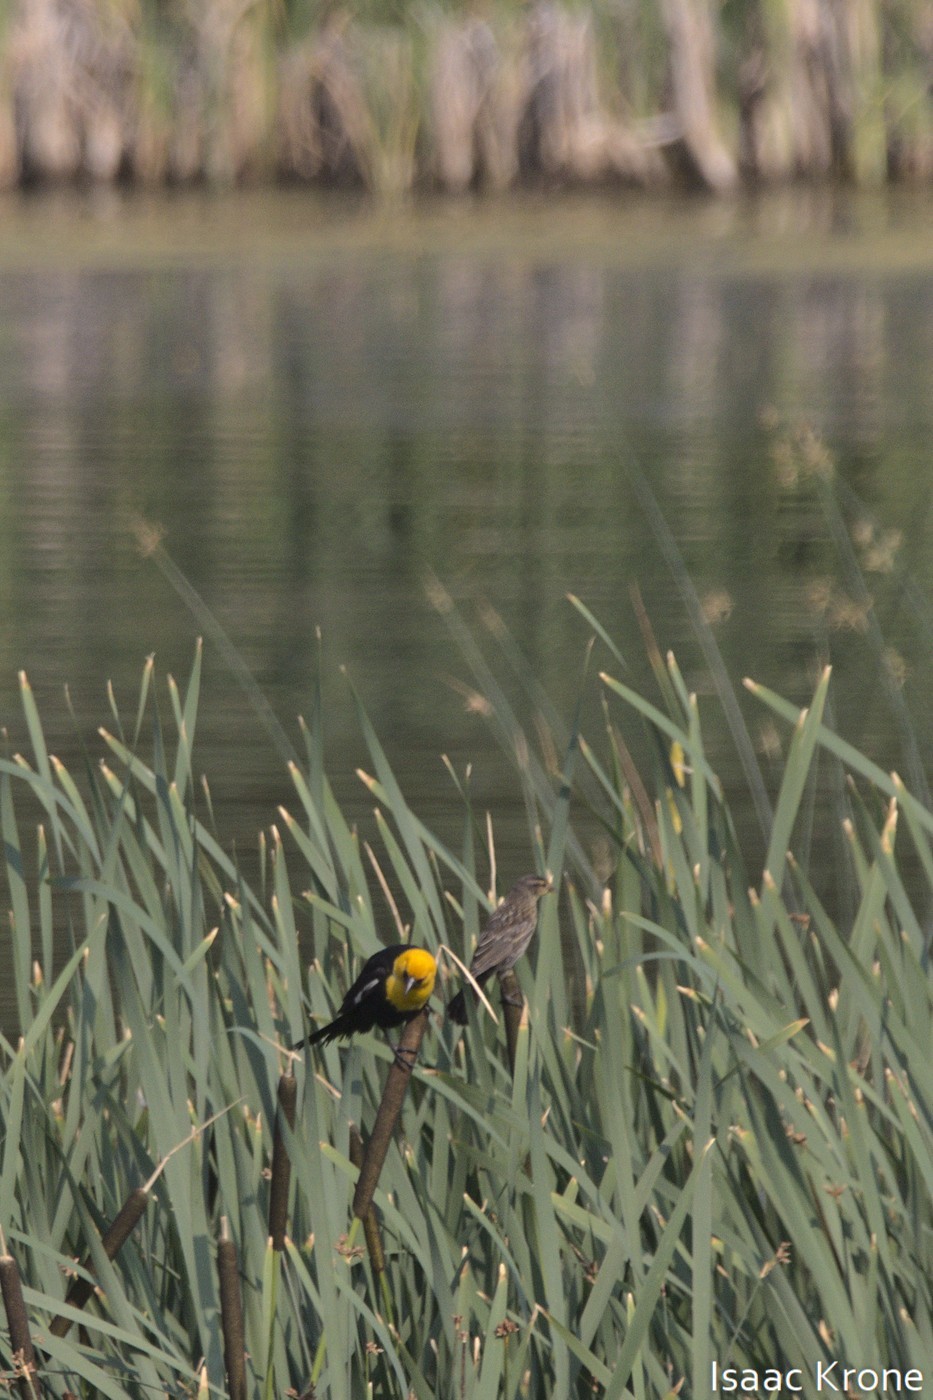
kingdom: Animalia
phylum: Chordata
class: Aves
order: Passeriformes
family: Icteridae
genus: Xanthocephalus
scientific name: Xanthocephalus xanthocephalus
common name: Yellow-headed blackbird
